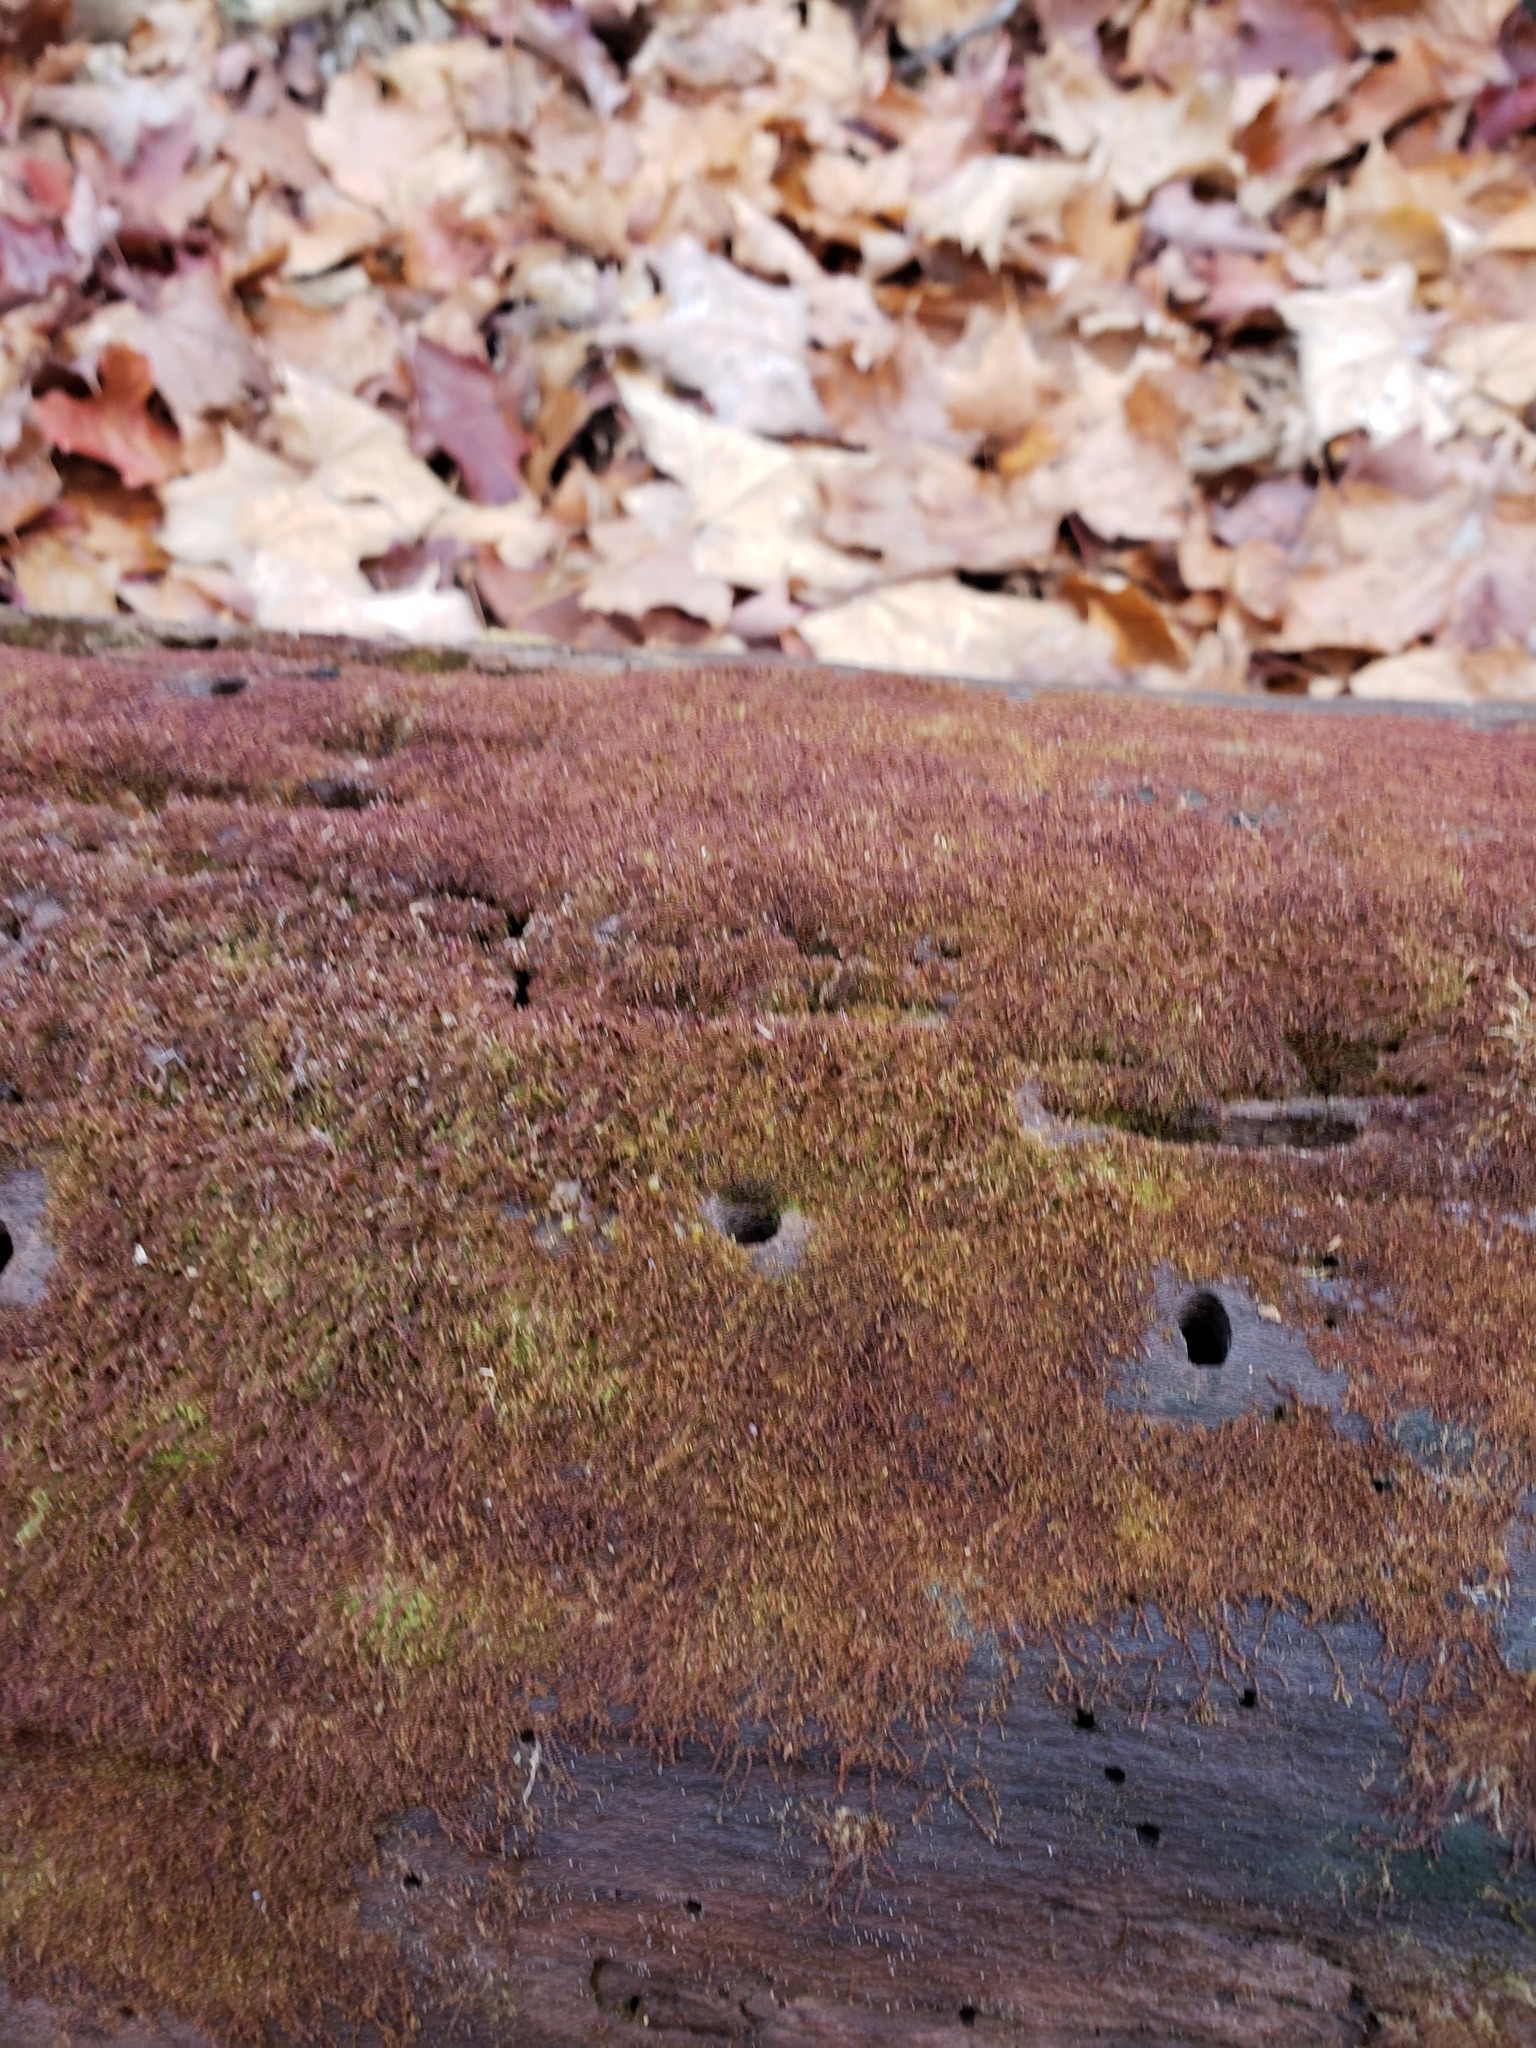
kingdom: Plantae
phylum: Marchantiophyta
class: Jungermanniopsida
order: Jungermanniales
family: Cephaloziaceae
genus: Nowellia
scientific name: Nowellia curvifolia
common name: Wood rustwort
